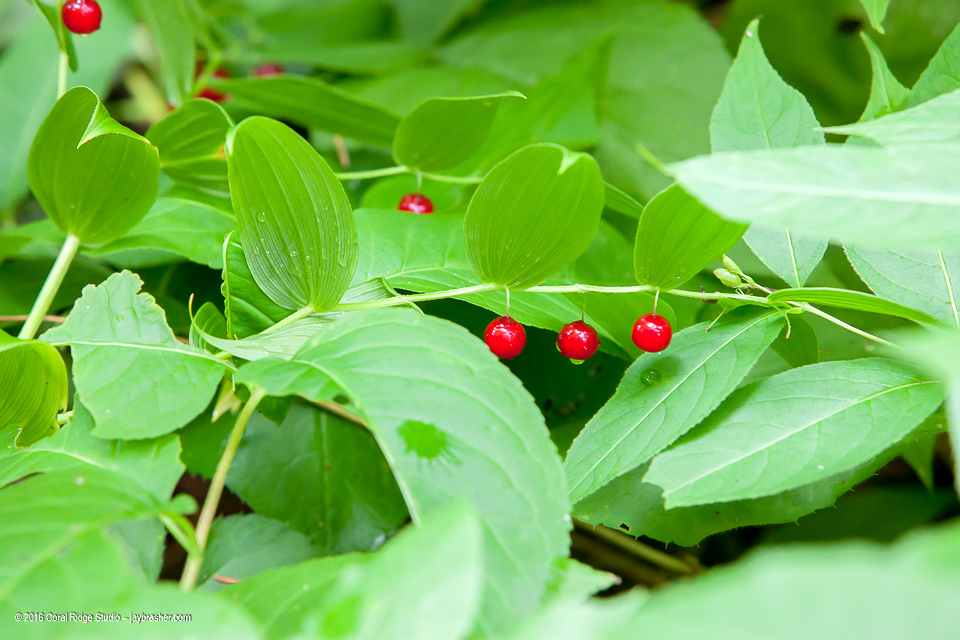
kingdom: Plantae
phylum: Tracheophyta
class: Liliopsida
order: Liliales
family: Liliaceae
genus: Streptopus
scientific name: Streptopus lanceolatus
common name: Rose mandarin
